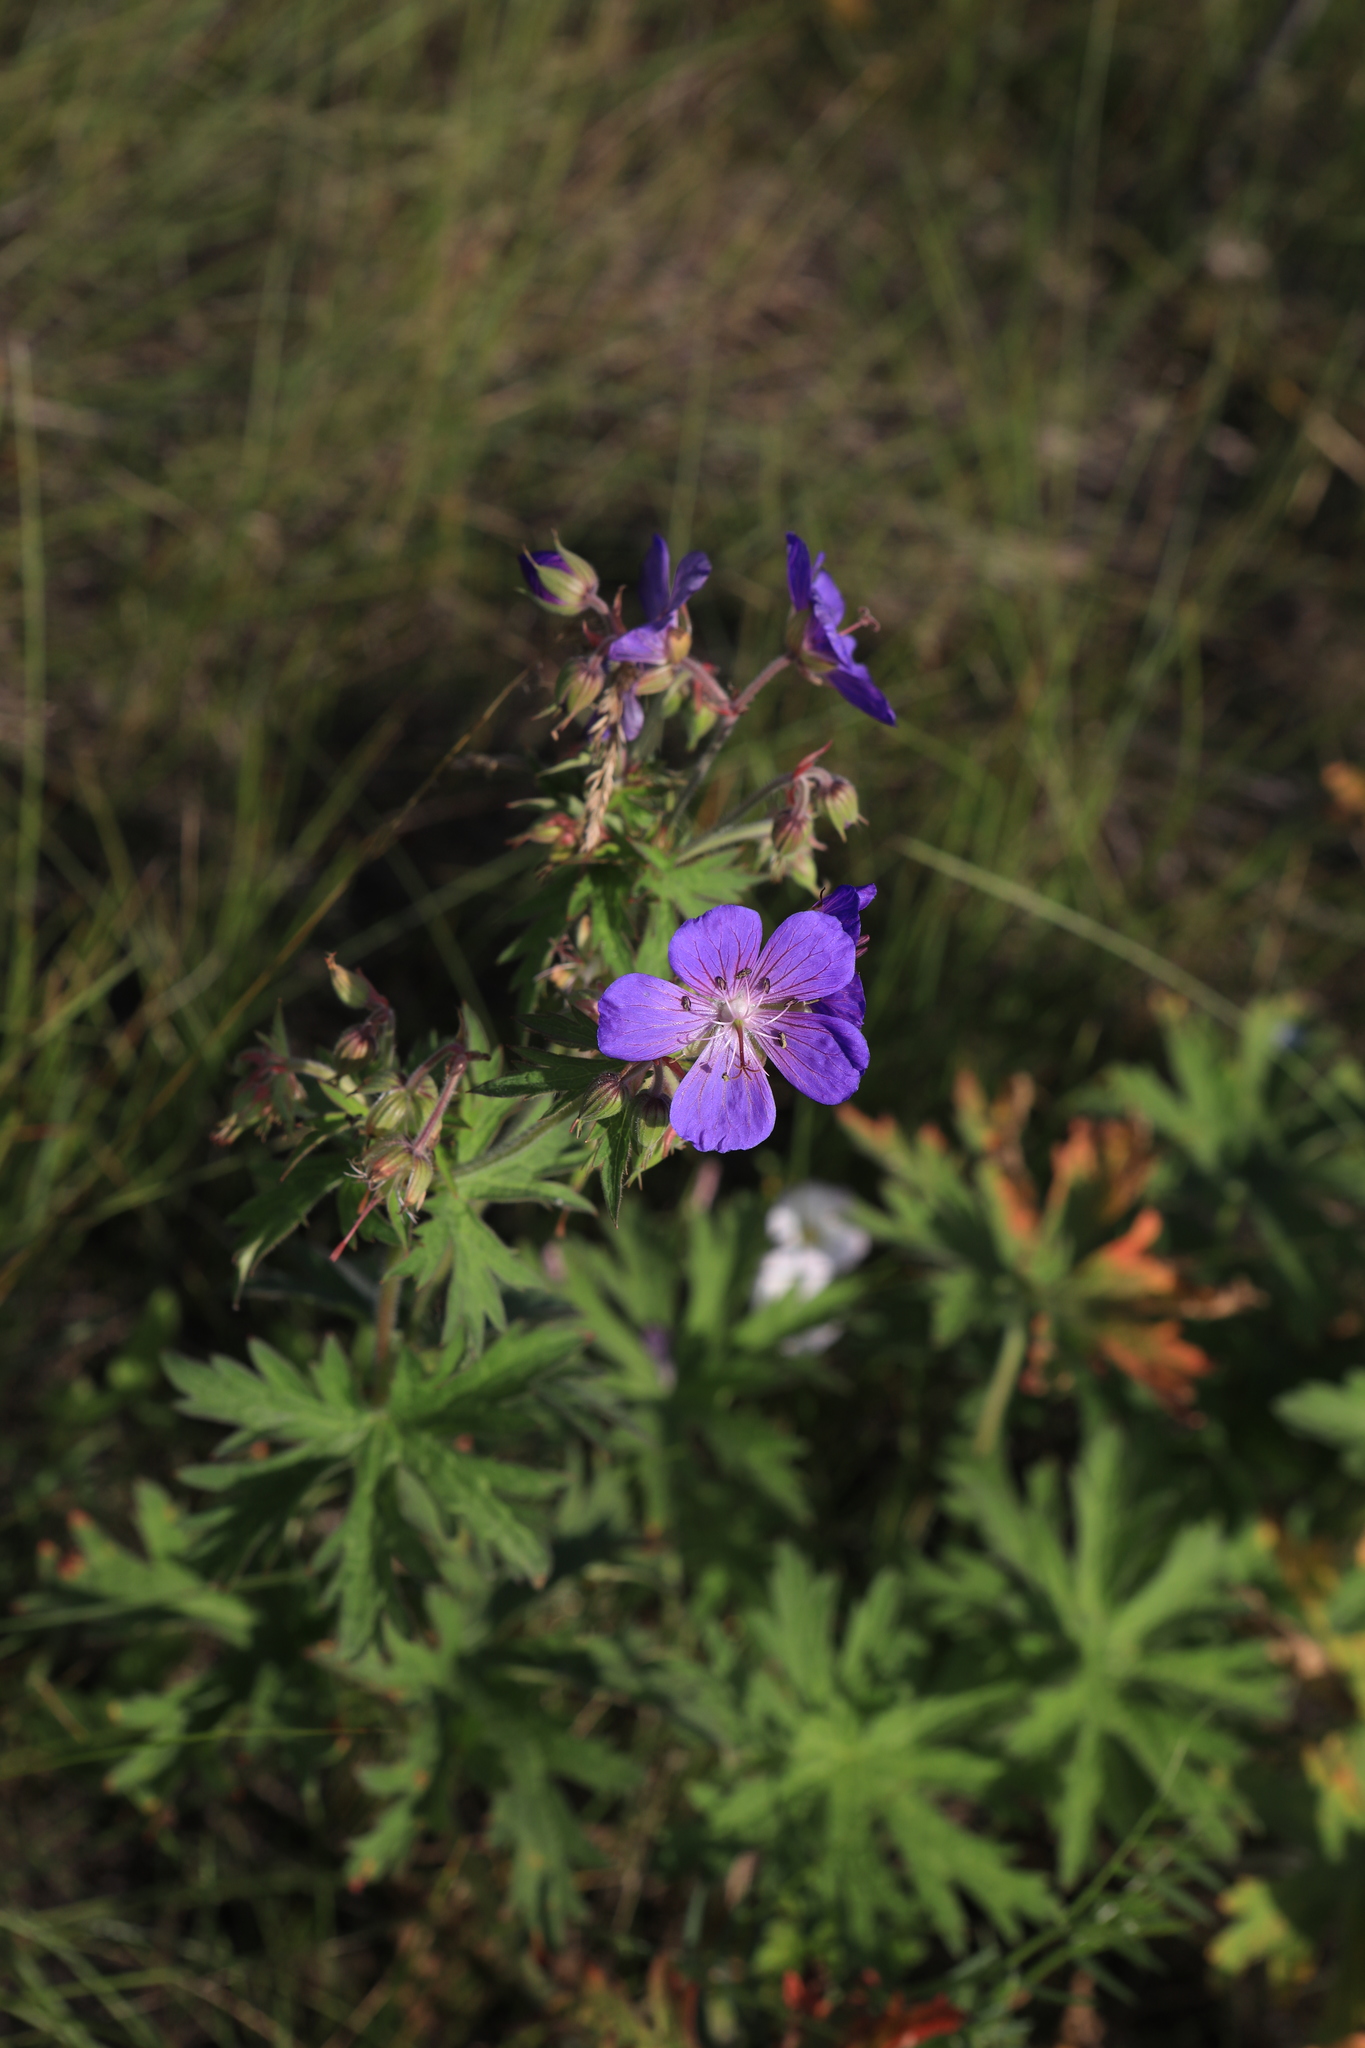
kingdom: Plantae
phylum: Tracheophyta
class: Magnoliopsida
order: Geraniales
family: Geraniaceae
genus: Geranium
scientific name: Geranium pratense
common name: Meadow crane's-bill
